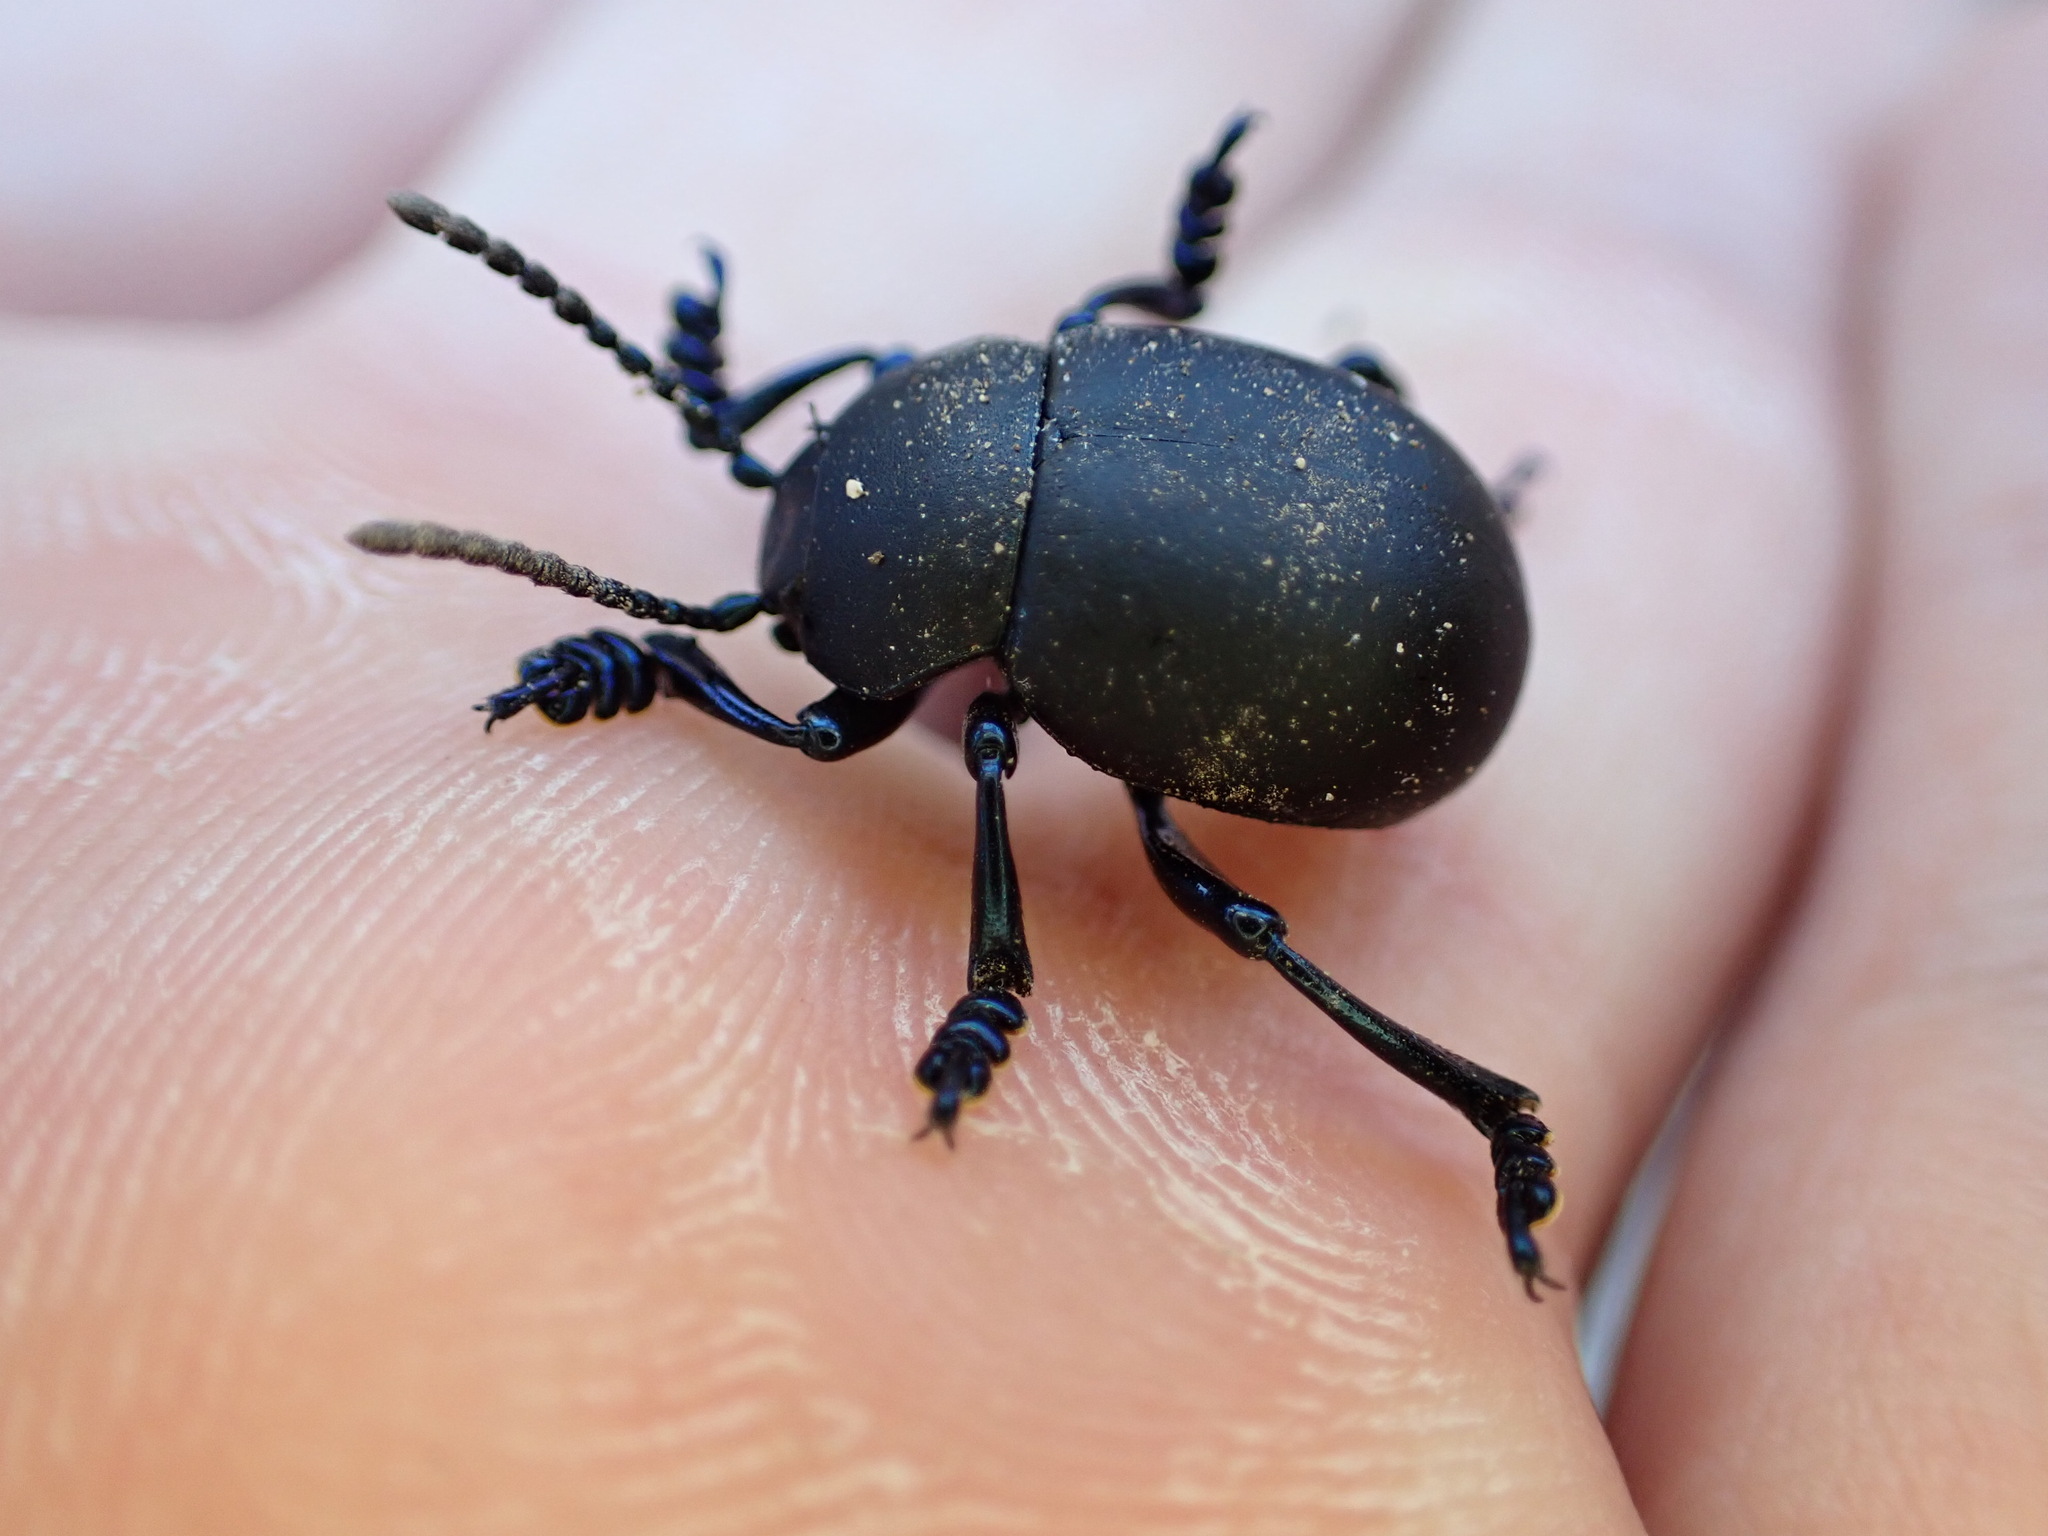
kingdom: Animalia
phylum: Arthropoda
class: Insecta
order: Coleoptera
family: Chrysomelidae
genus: Timarcha
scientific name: Timarcha tenebricosa
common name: Bloody-nosed beetle
